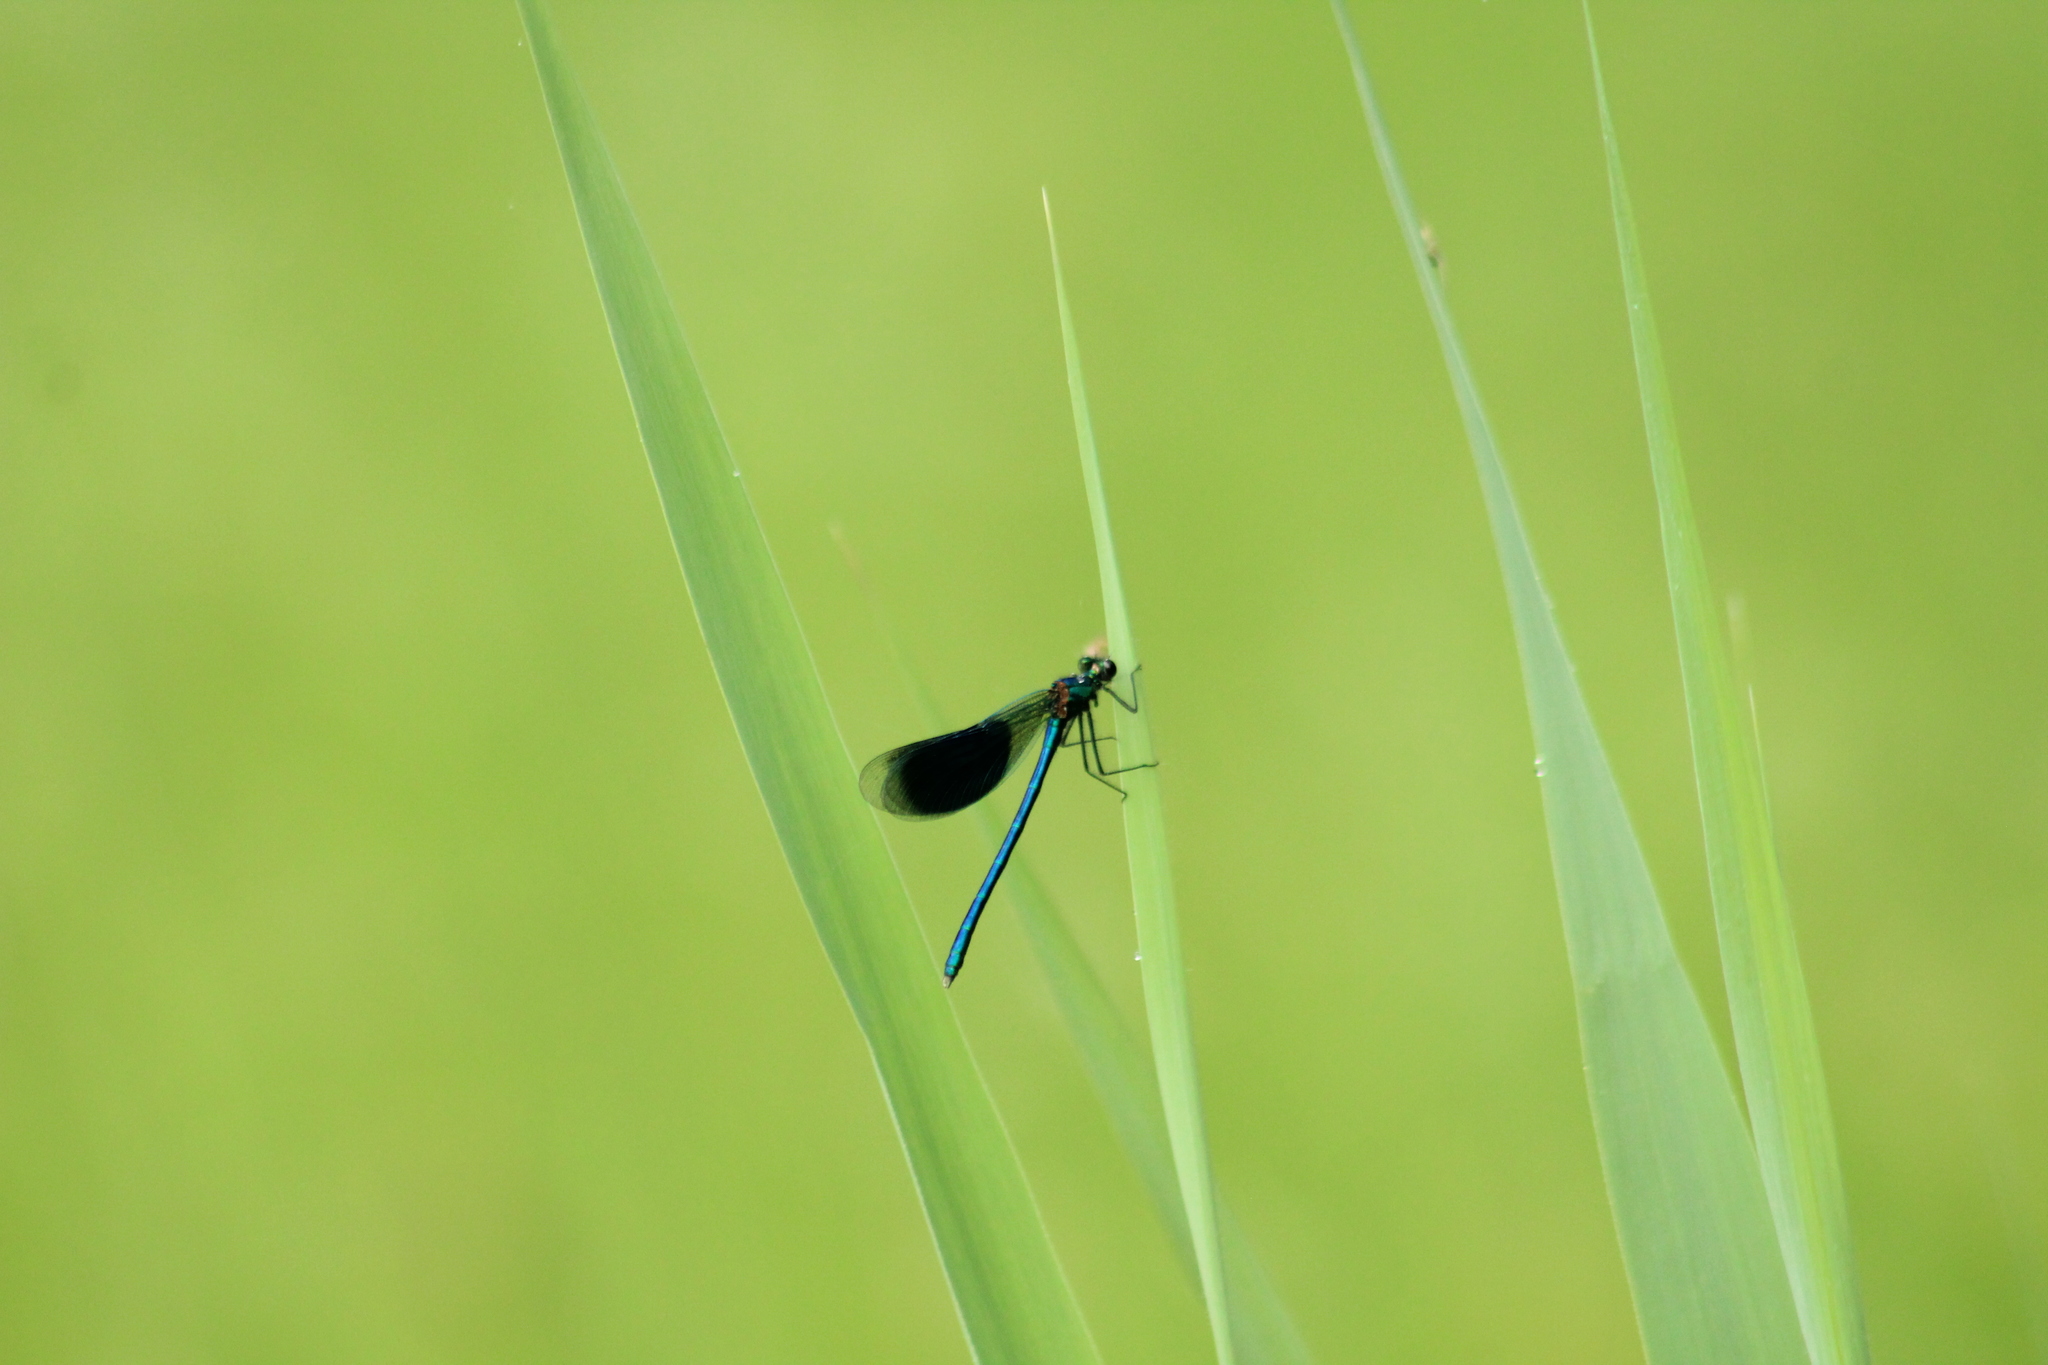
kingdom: Animalia
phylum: Arthropoda
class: Insecta
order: Odonata
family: Calopterygidae
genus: Calopteryx
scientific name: Calopteryx splendens
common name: Banded demoiselle
